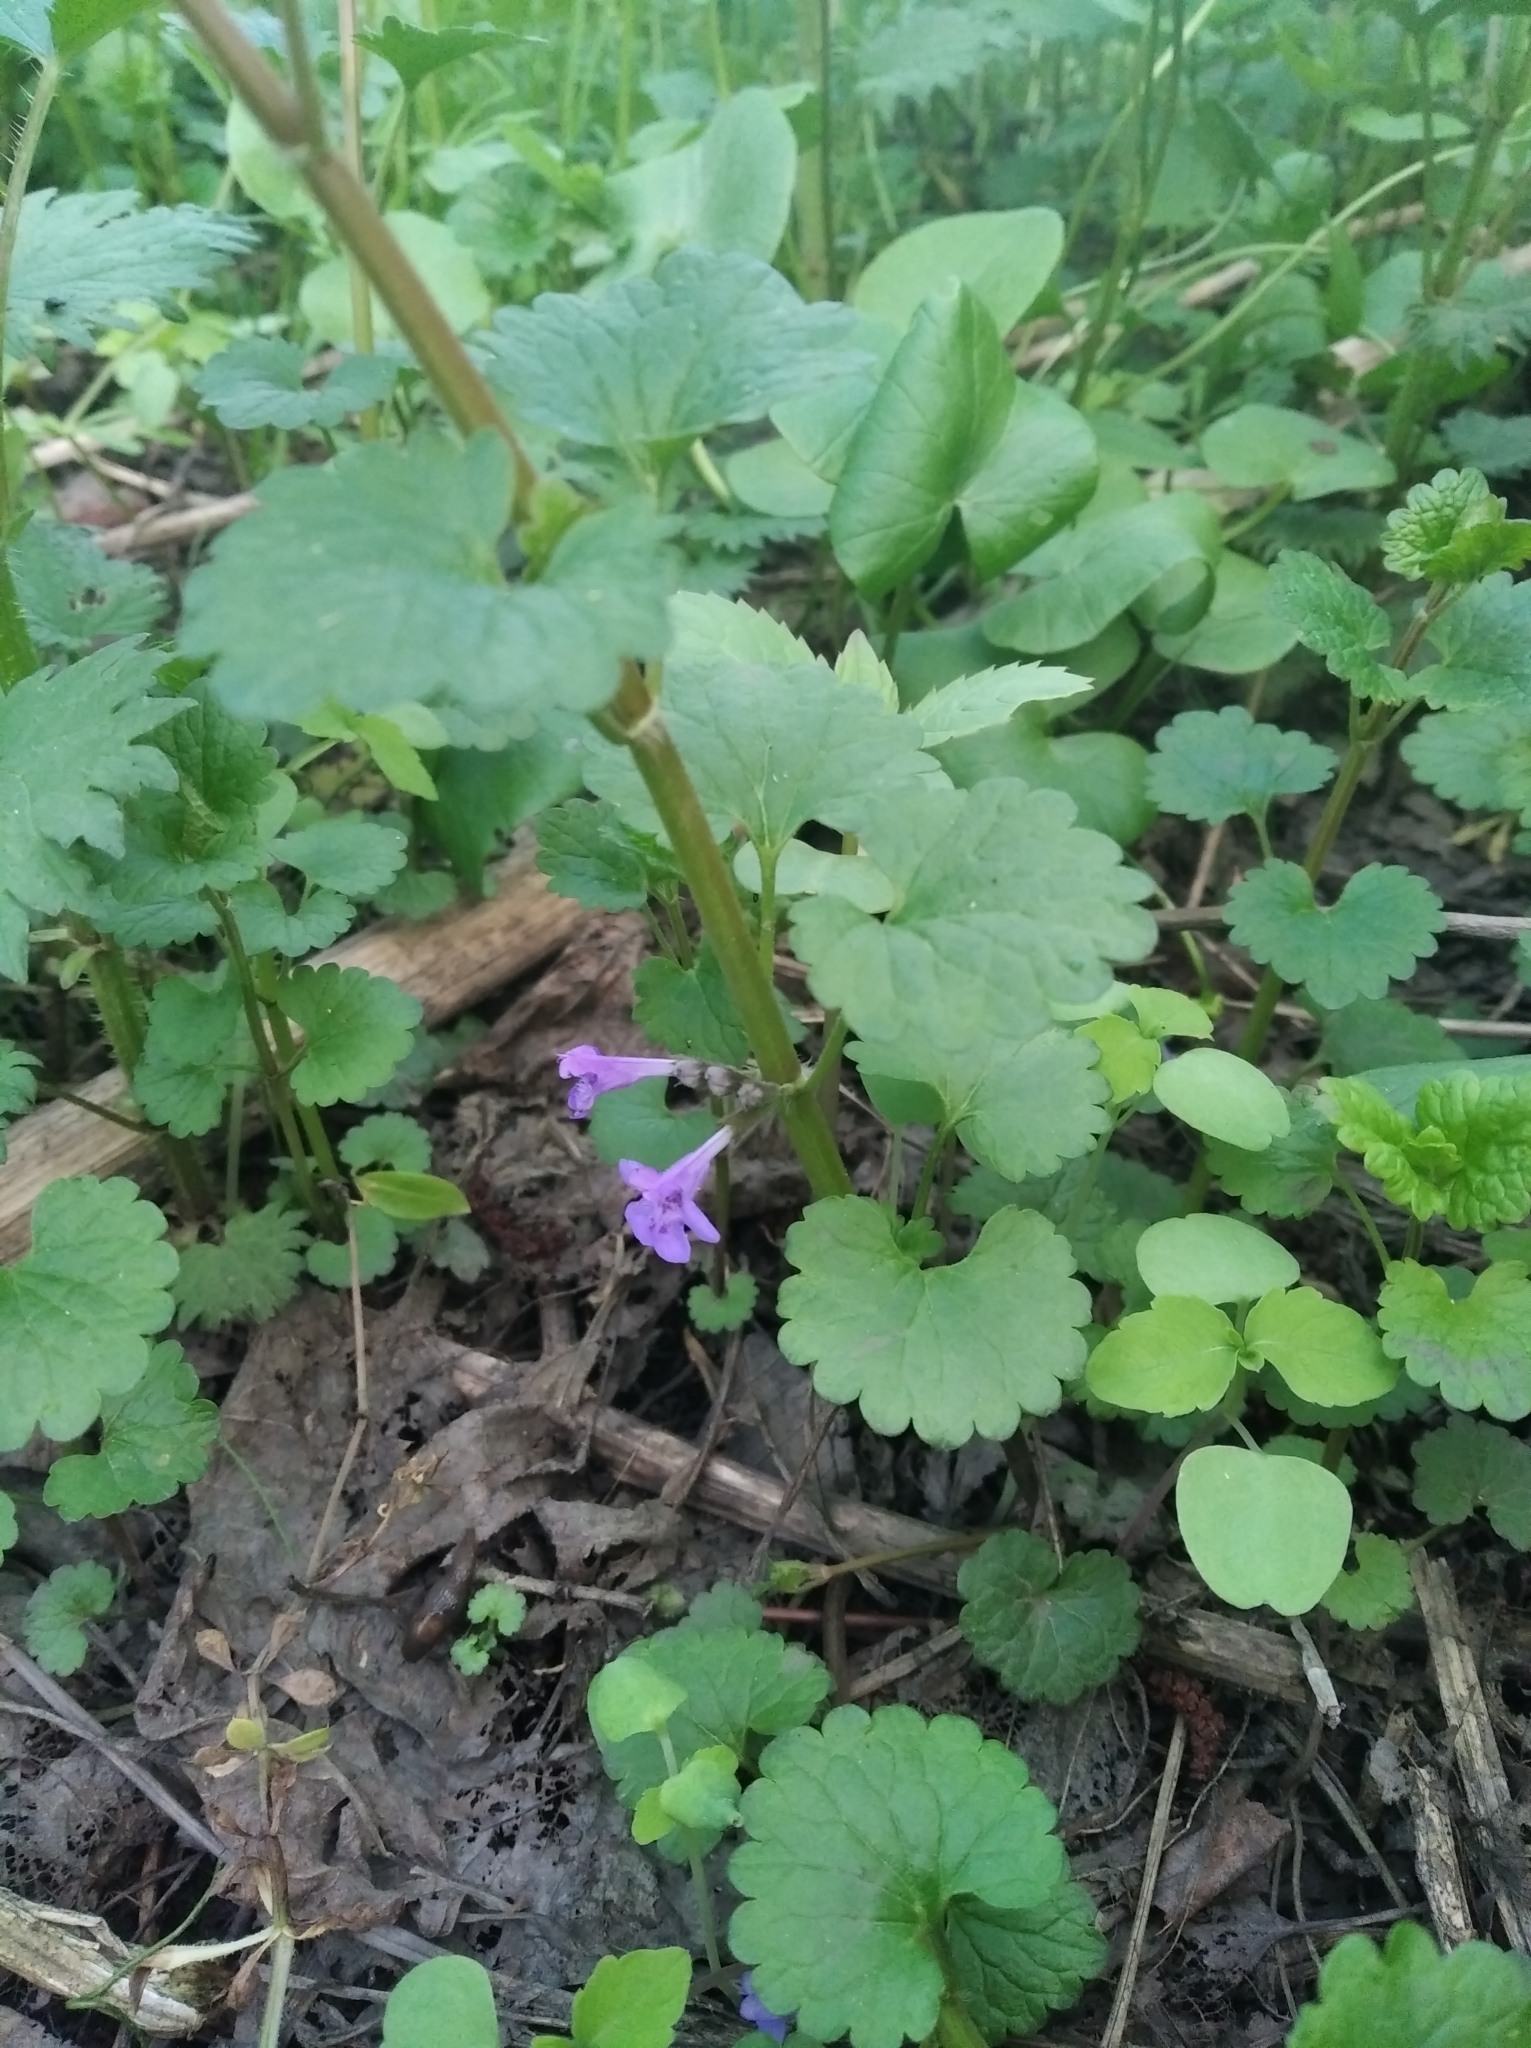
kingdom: Plantae
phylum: Tracheophyta
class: Magnoliopsida
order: Lamiales
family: Lamiaceae
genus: Glechoma
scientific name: Glechoma hederacea
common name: Ground ivy
